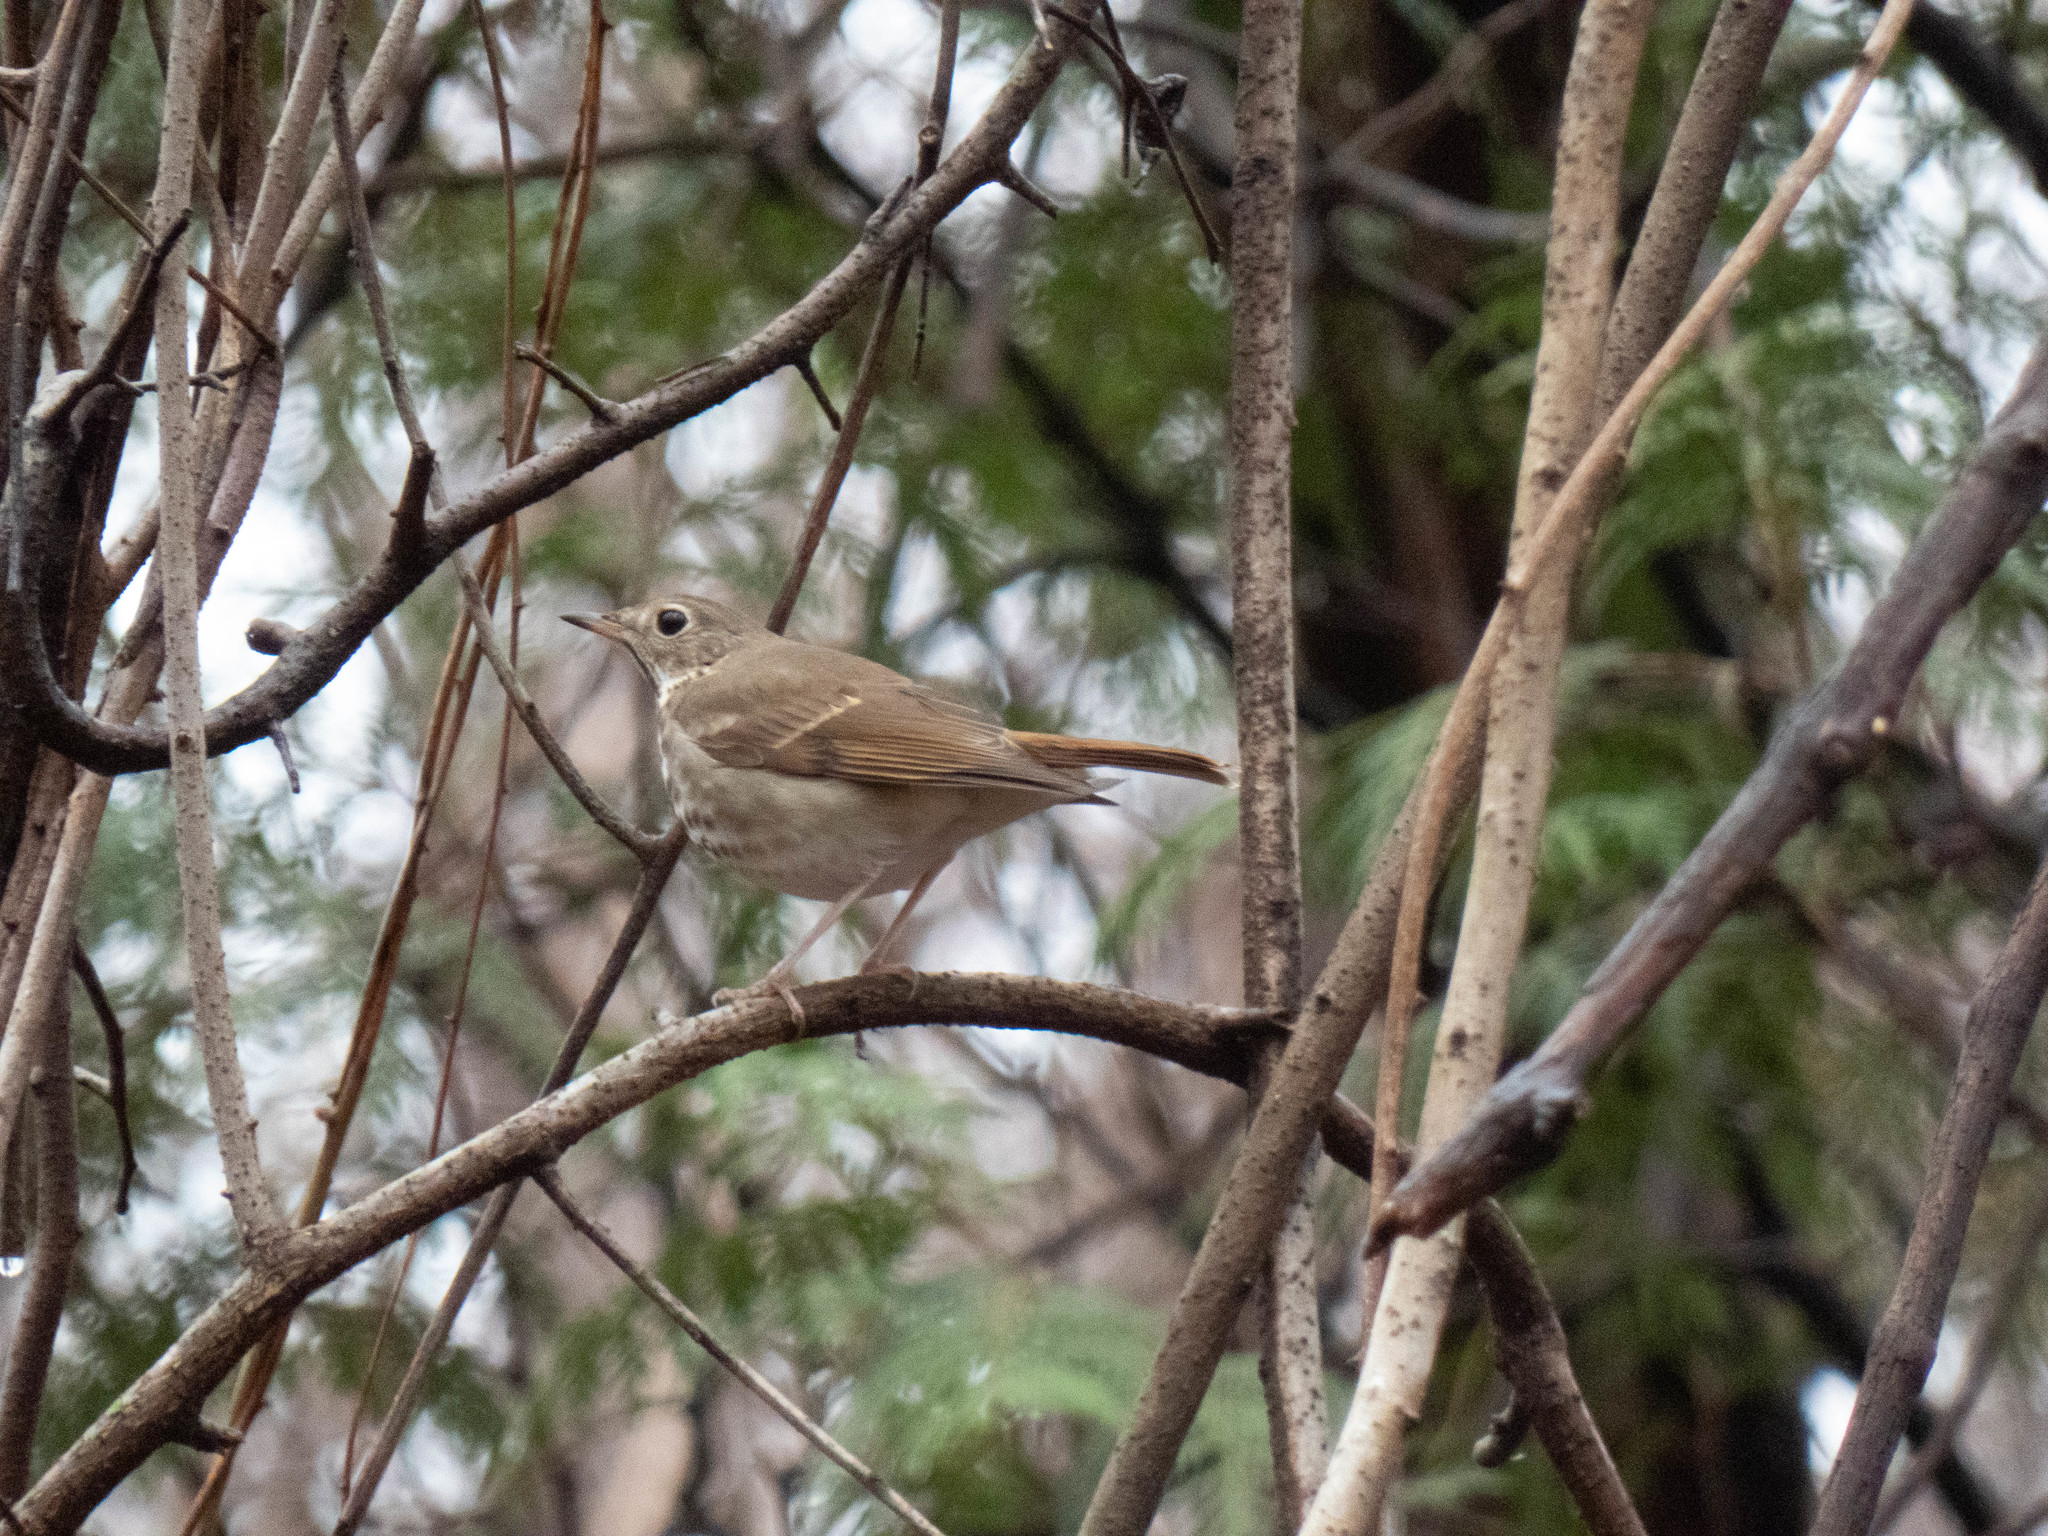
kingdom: Animalia
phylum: Chordata
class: Aves
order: Passeriformes
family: Turdidae
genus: Catharus
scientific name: Catharus guttatus
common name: Hermit thrush
